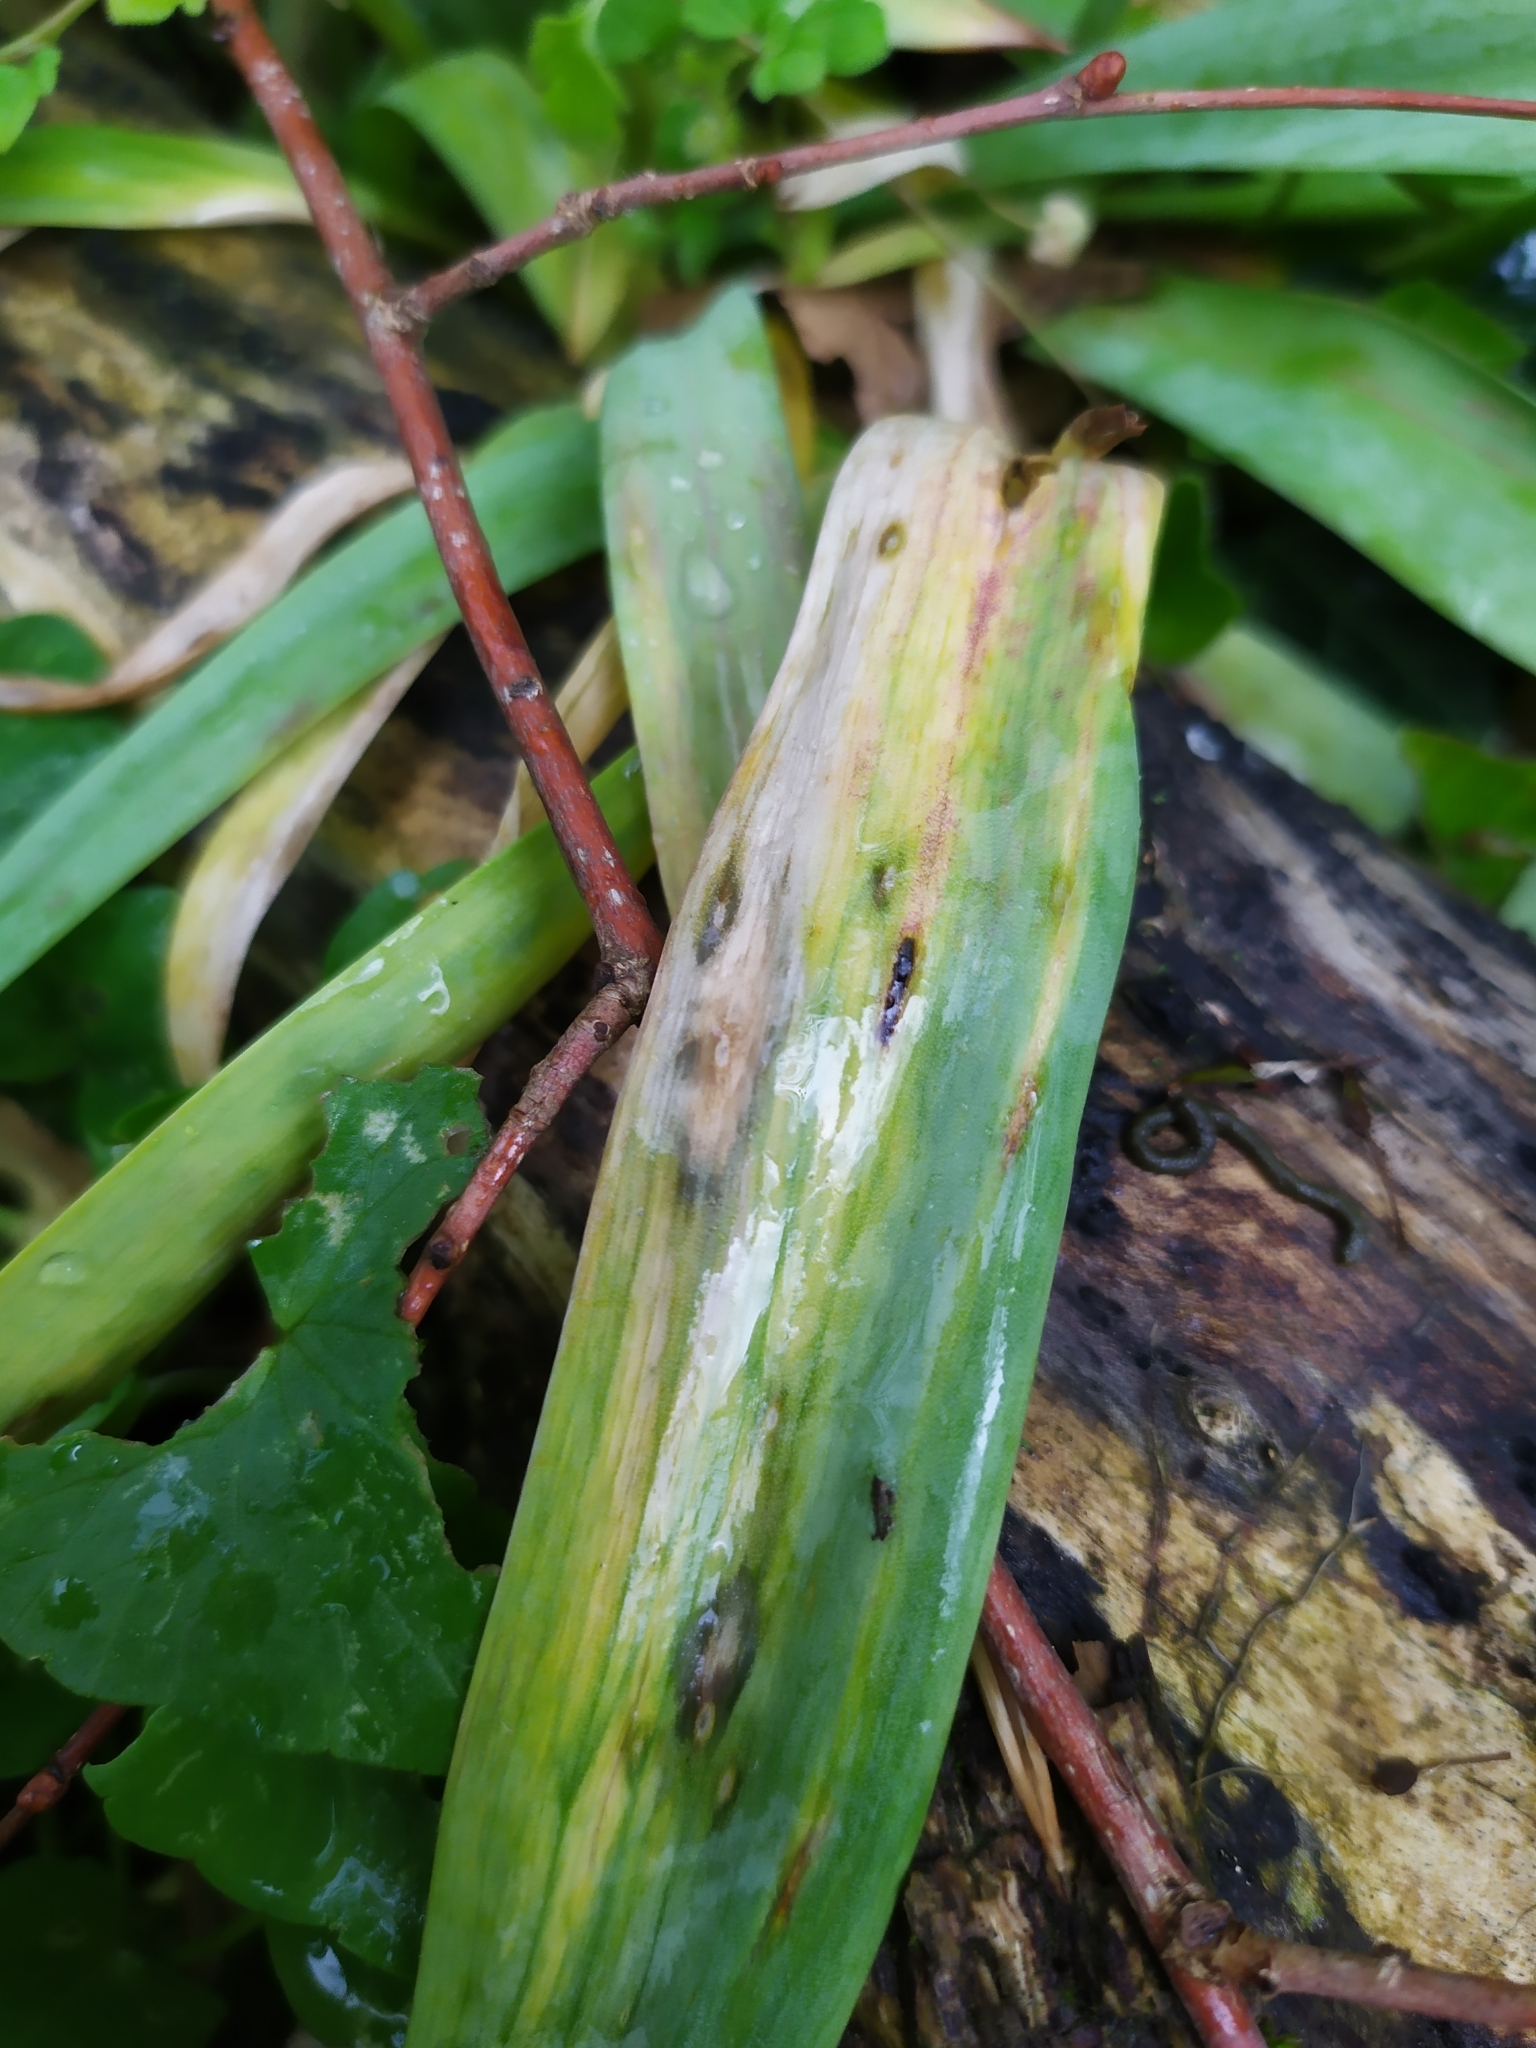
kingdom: Fungi
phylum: Basidiomycota
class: Ustilaginomycetes
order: Urocystidales
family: Urocystidaceae
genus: Vankya
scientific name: Vankya heufleri
